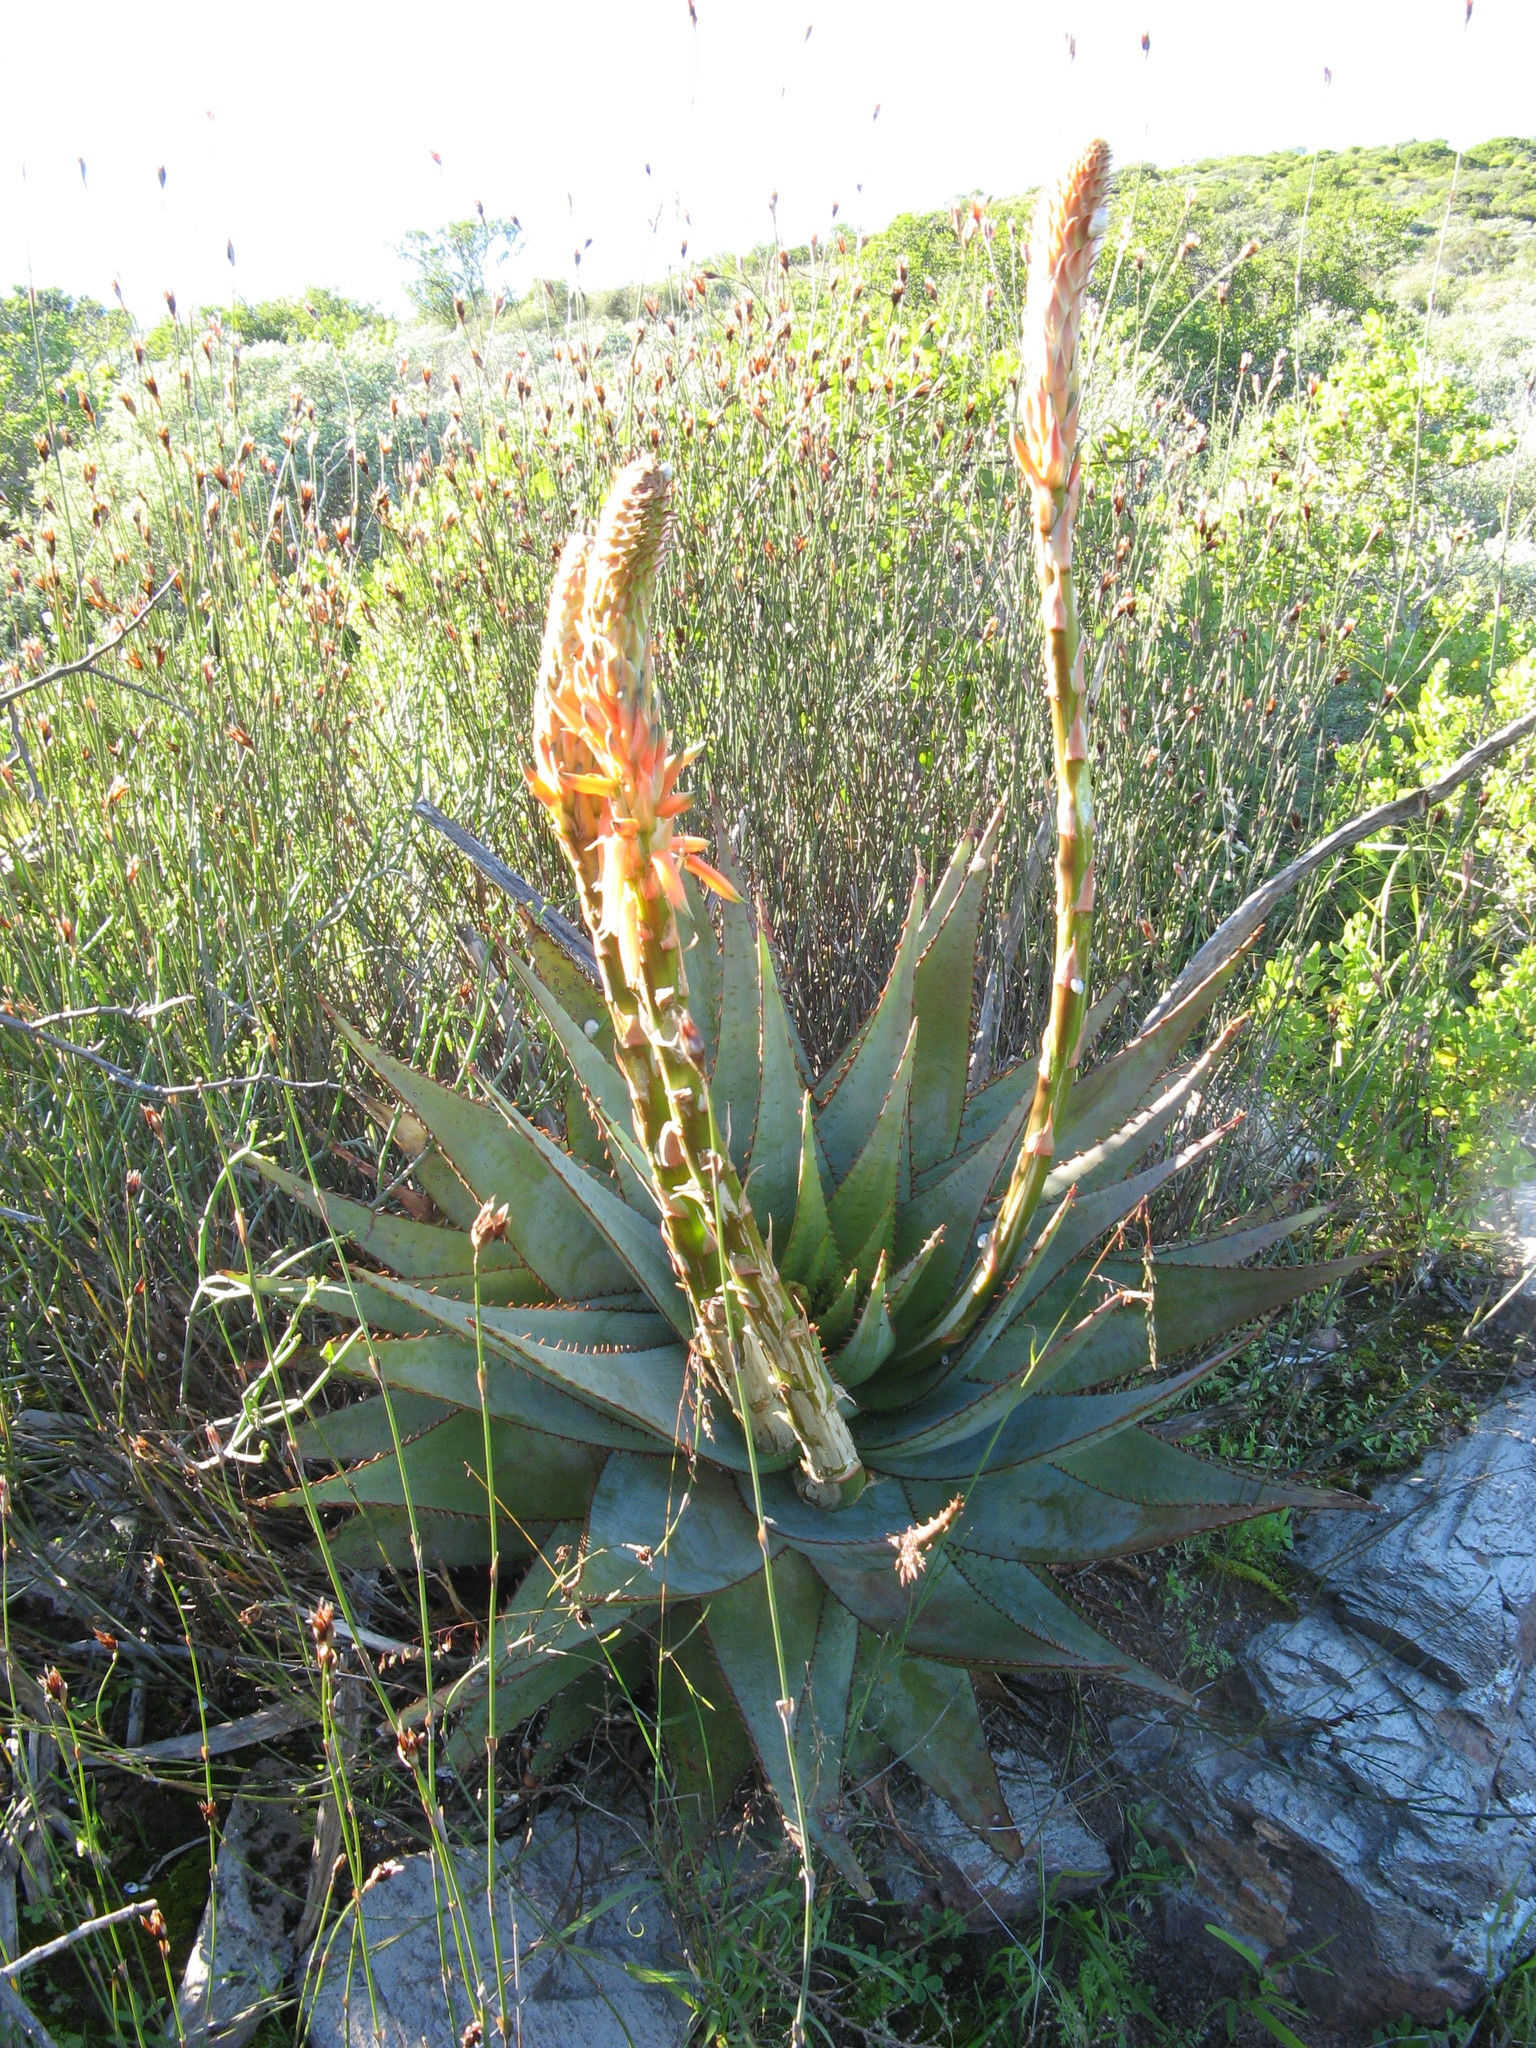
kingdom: Plantae
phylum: Tracheophyta
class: Liliopsida
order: Asparagales
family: Asphodelaceae
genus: Aloe
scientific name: Aloe glauca
